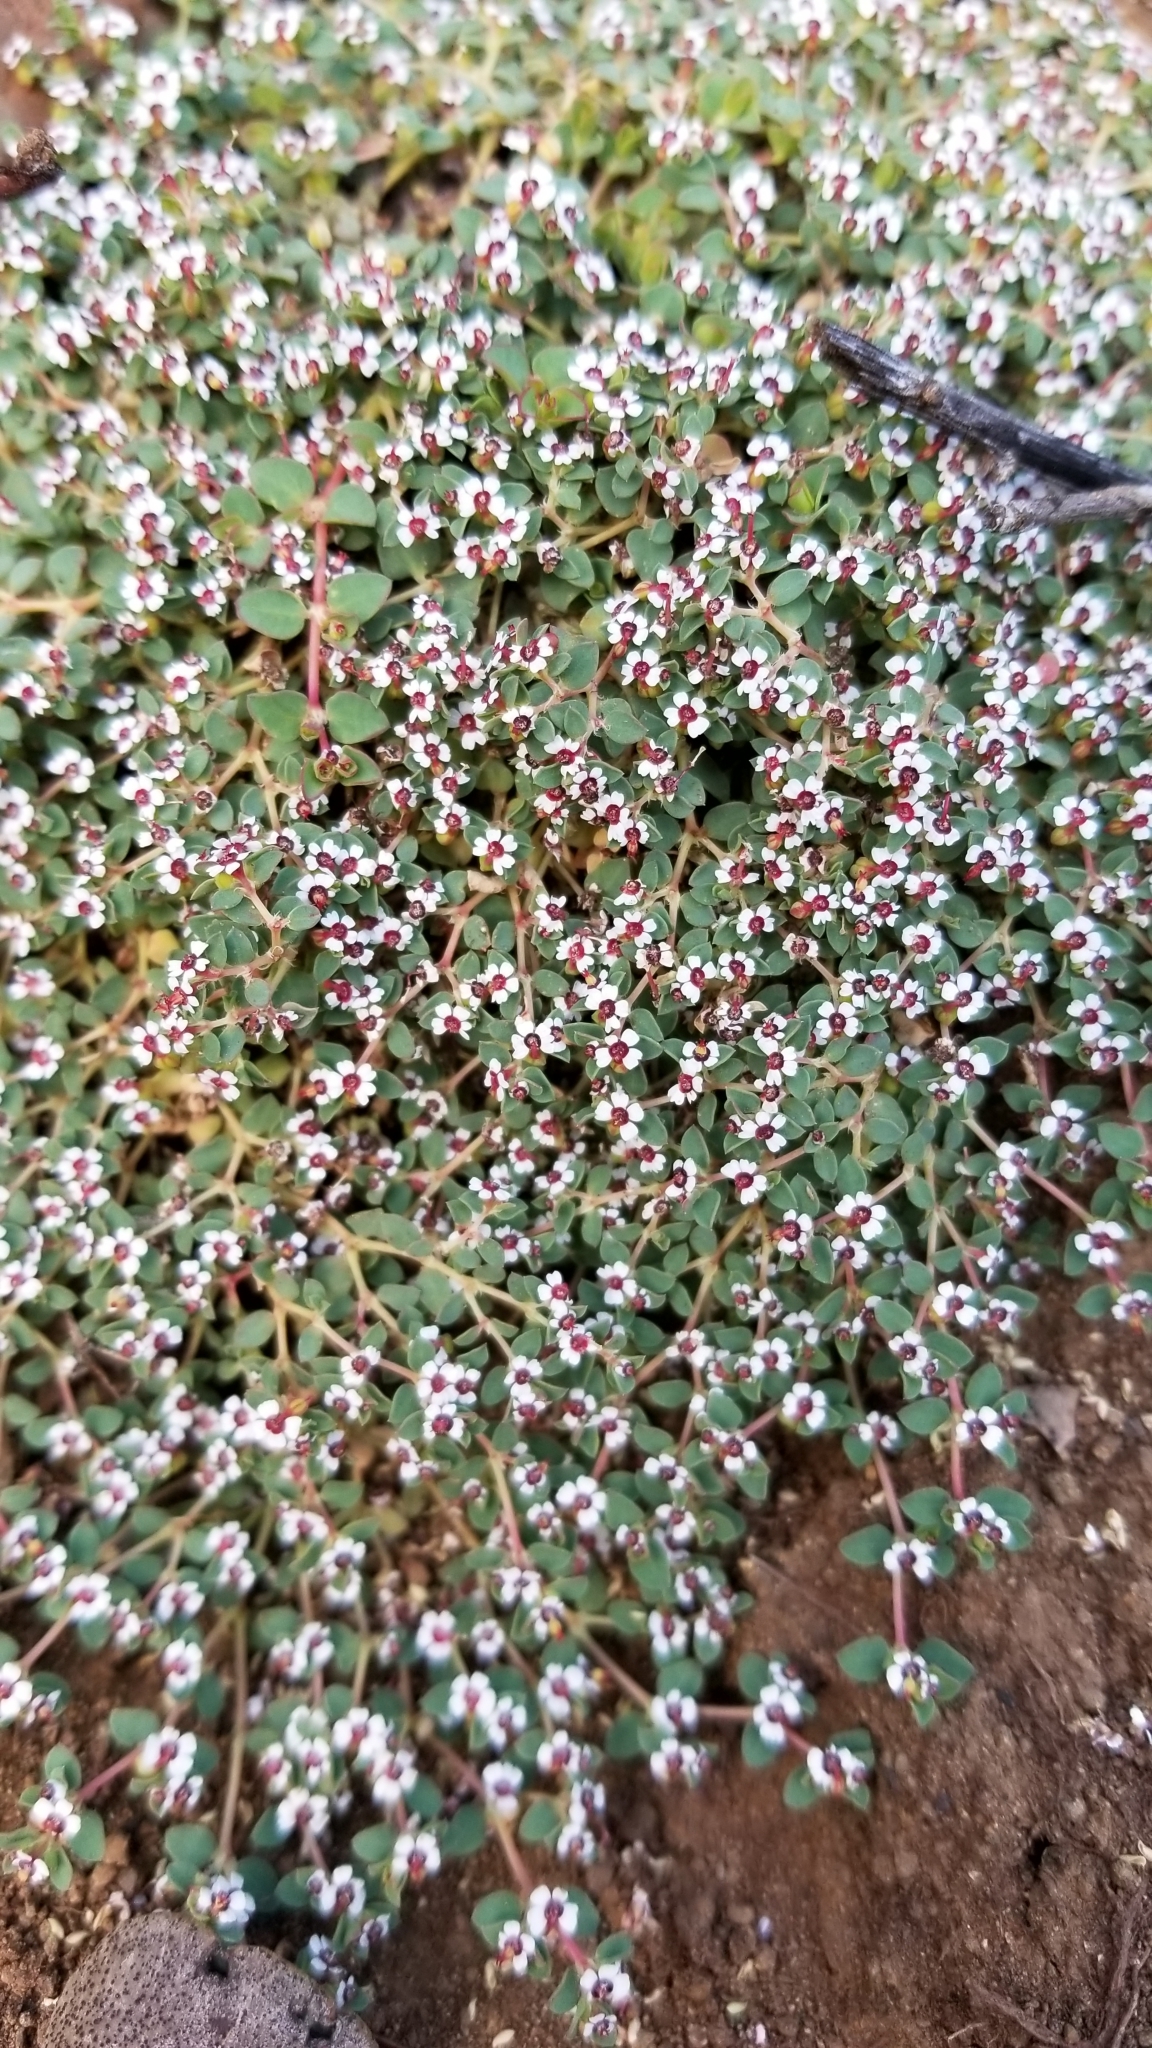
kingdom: Plantae
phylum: Tracheophyta
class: Magnoliopsida
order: Malpighiales
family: Euphorbiaceae
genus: Euphorbia
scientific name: Euphorbia polycarpa
